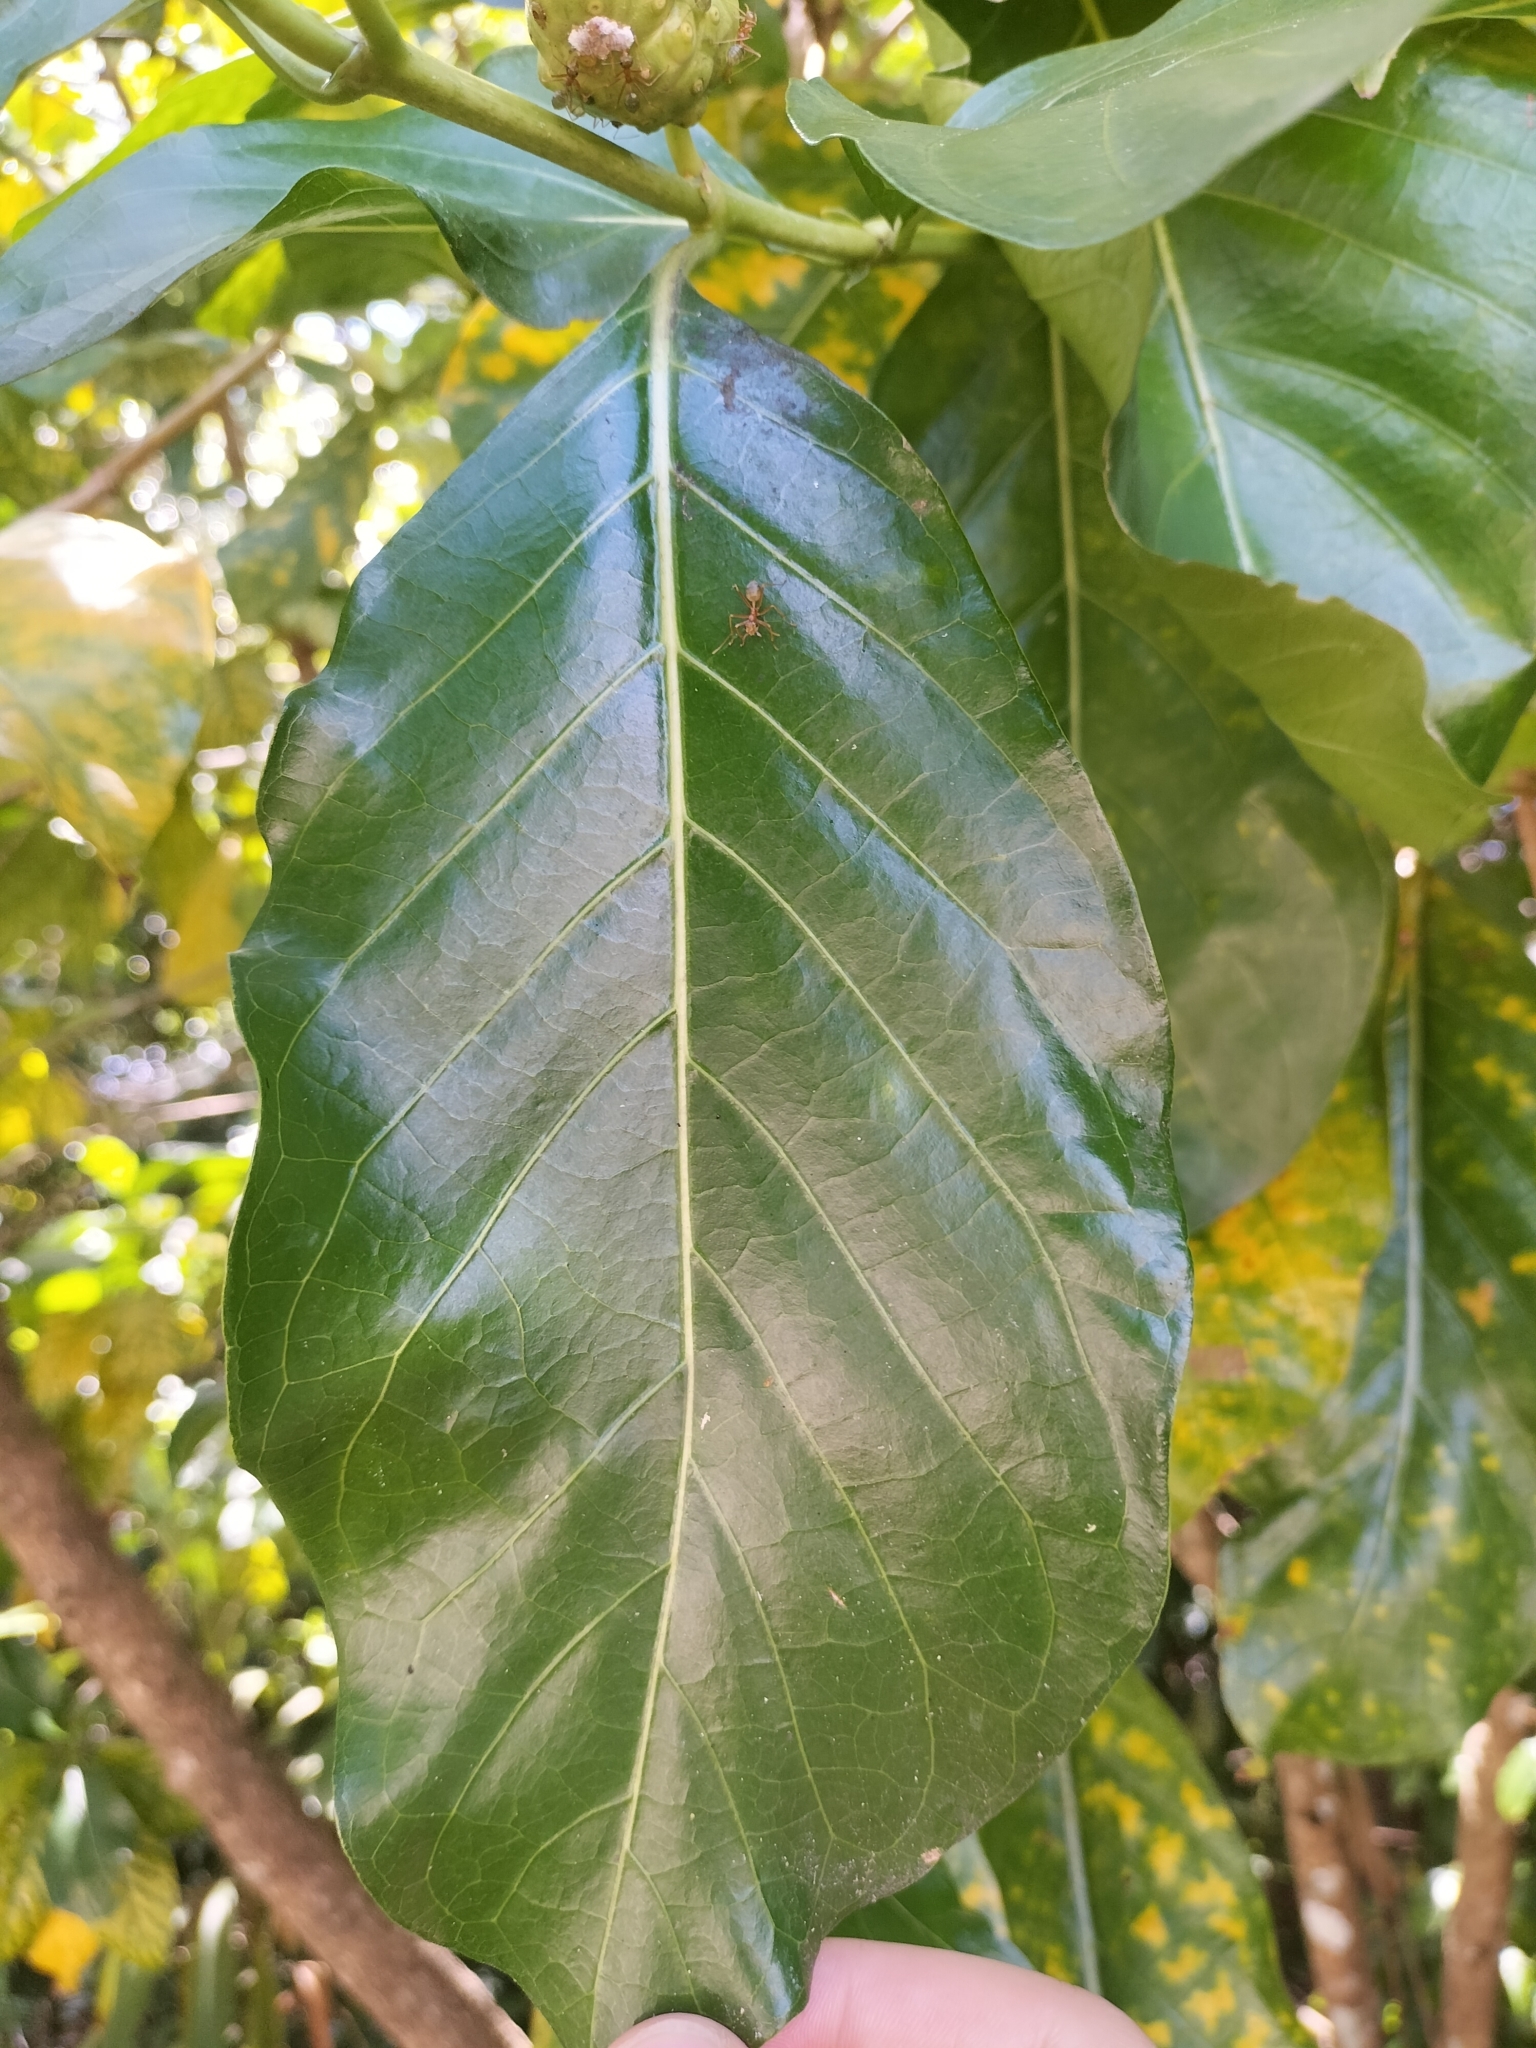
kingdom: Plantae
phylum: Tracheophyta
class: Magnoliopsida
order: Gentianales
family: Rubiaceae
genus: Morinda
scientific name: Morinda citrifolia
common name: Indian-mulberry
